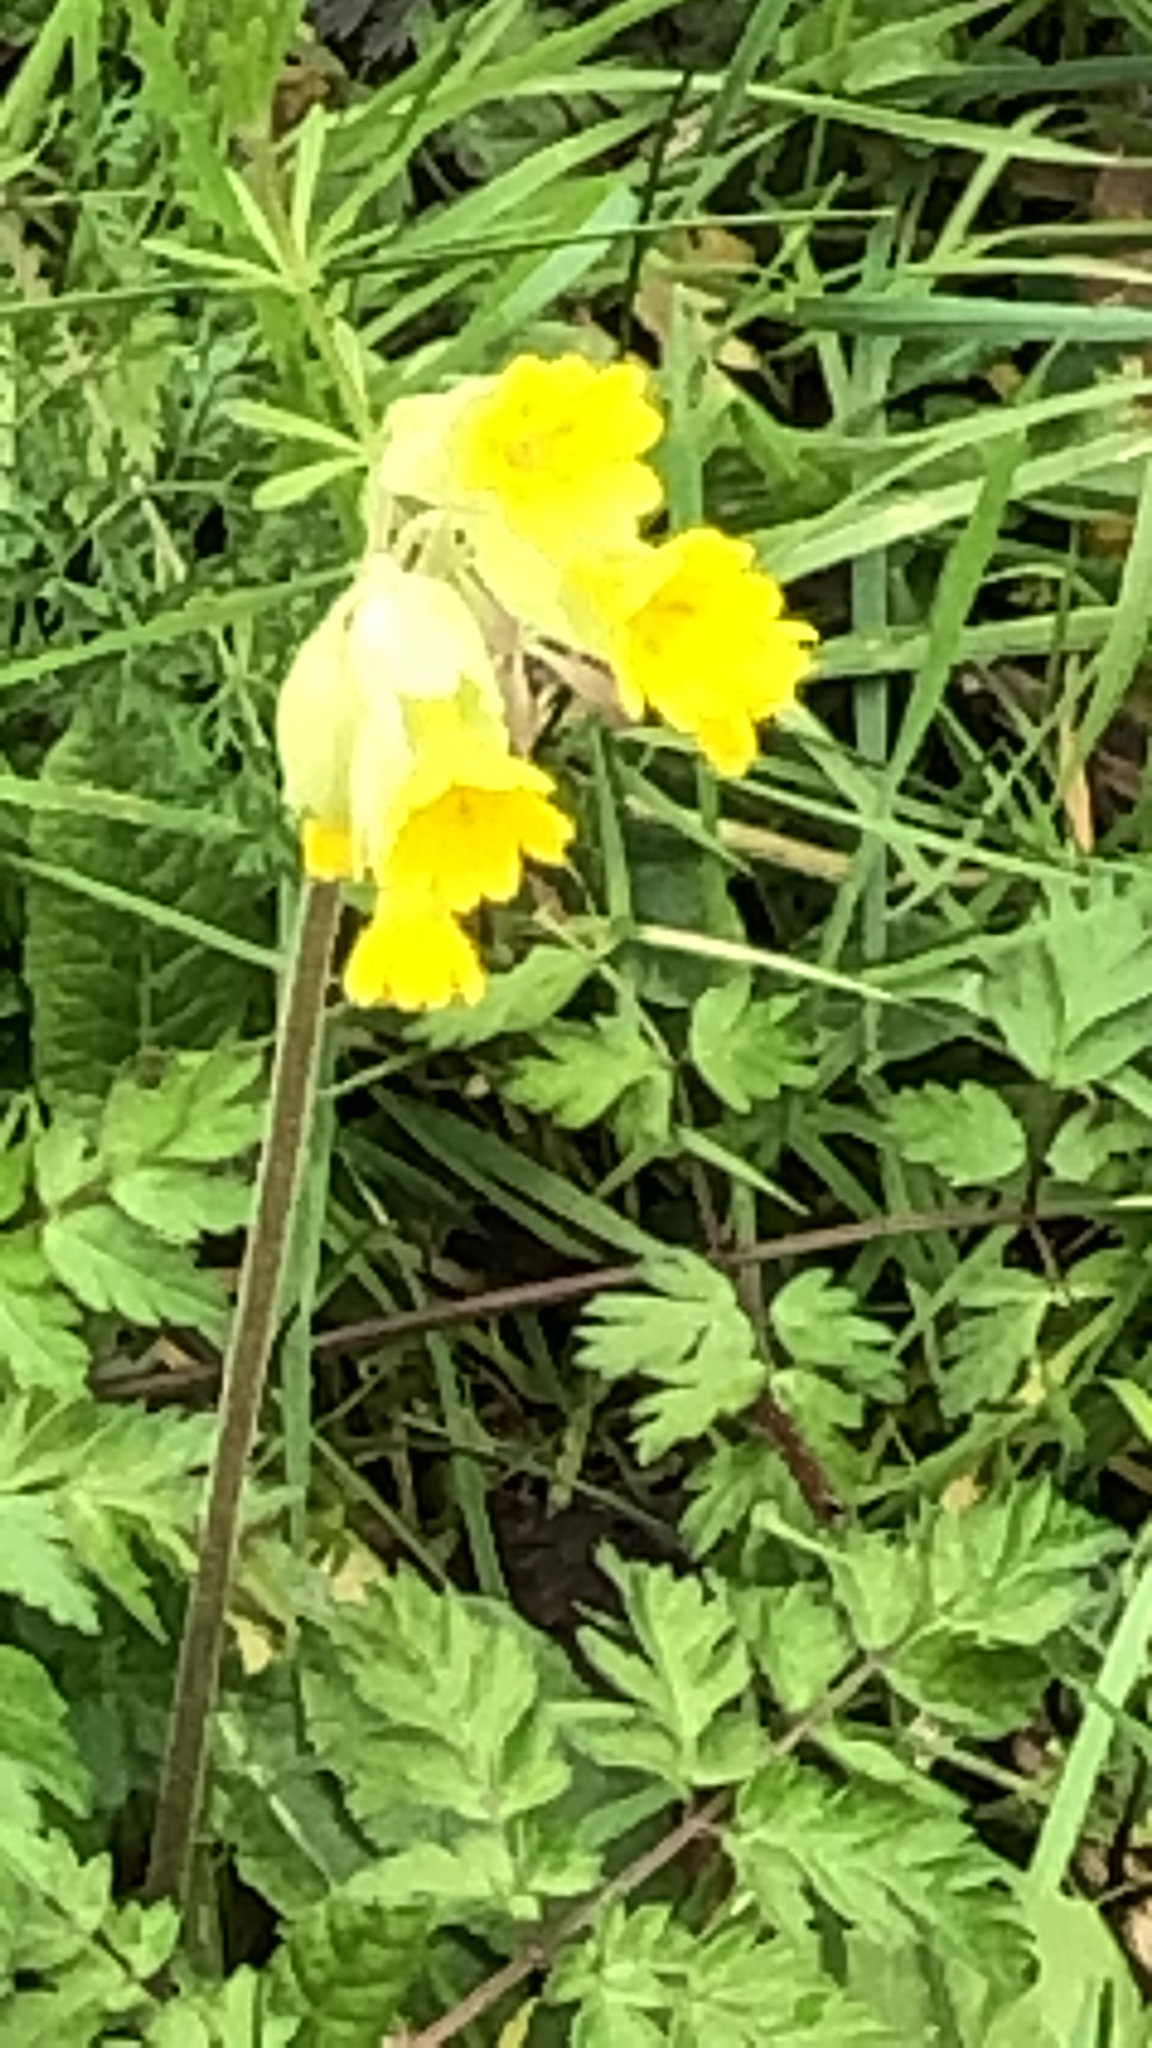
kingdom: Plantae
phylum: Tracheophyta
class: Magnoliopsida
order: Ericales
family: Primulaceae
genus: Primula
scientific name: Primula veris
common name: Cowslip
